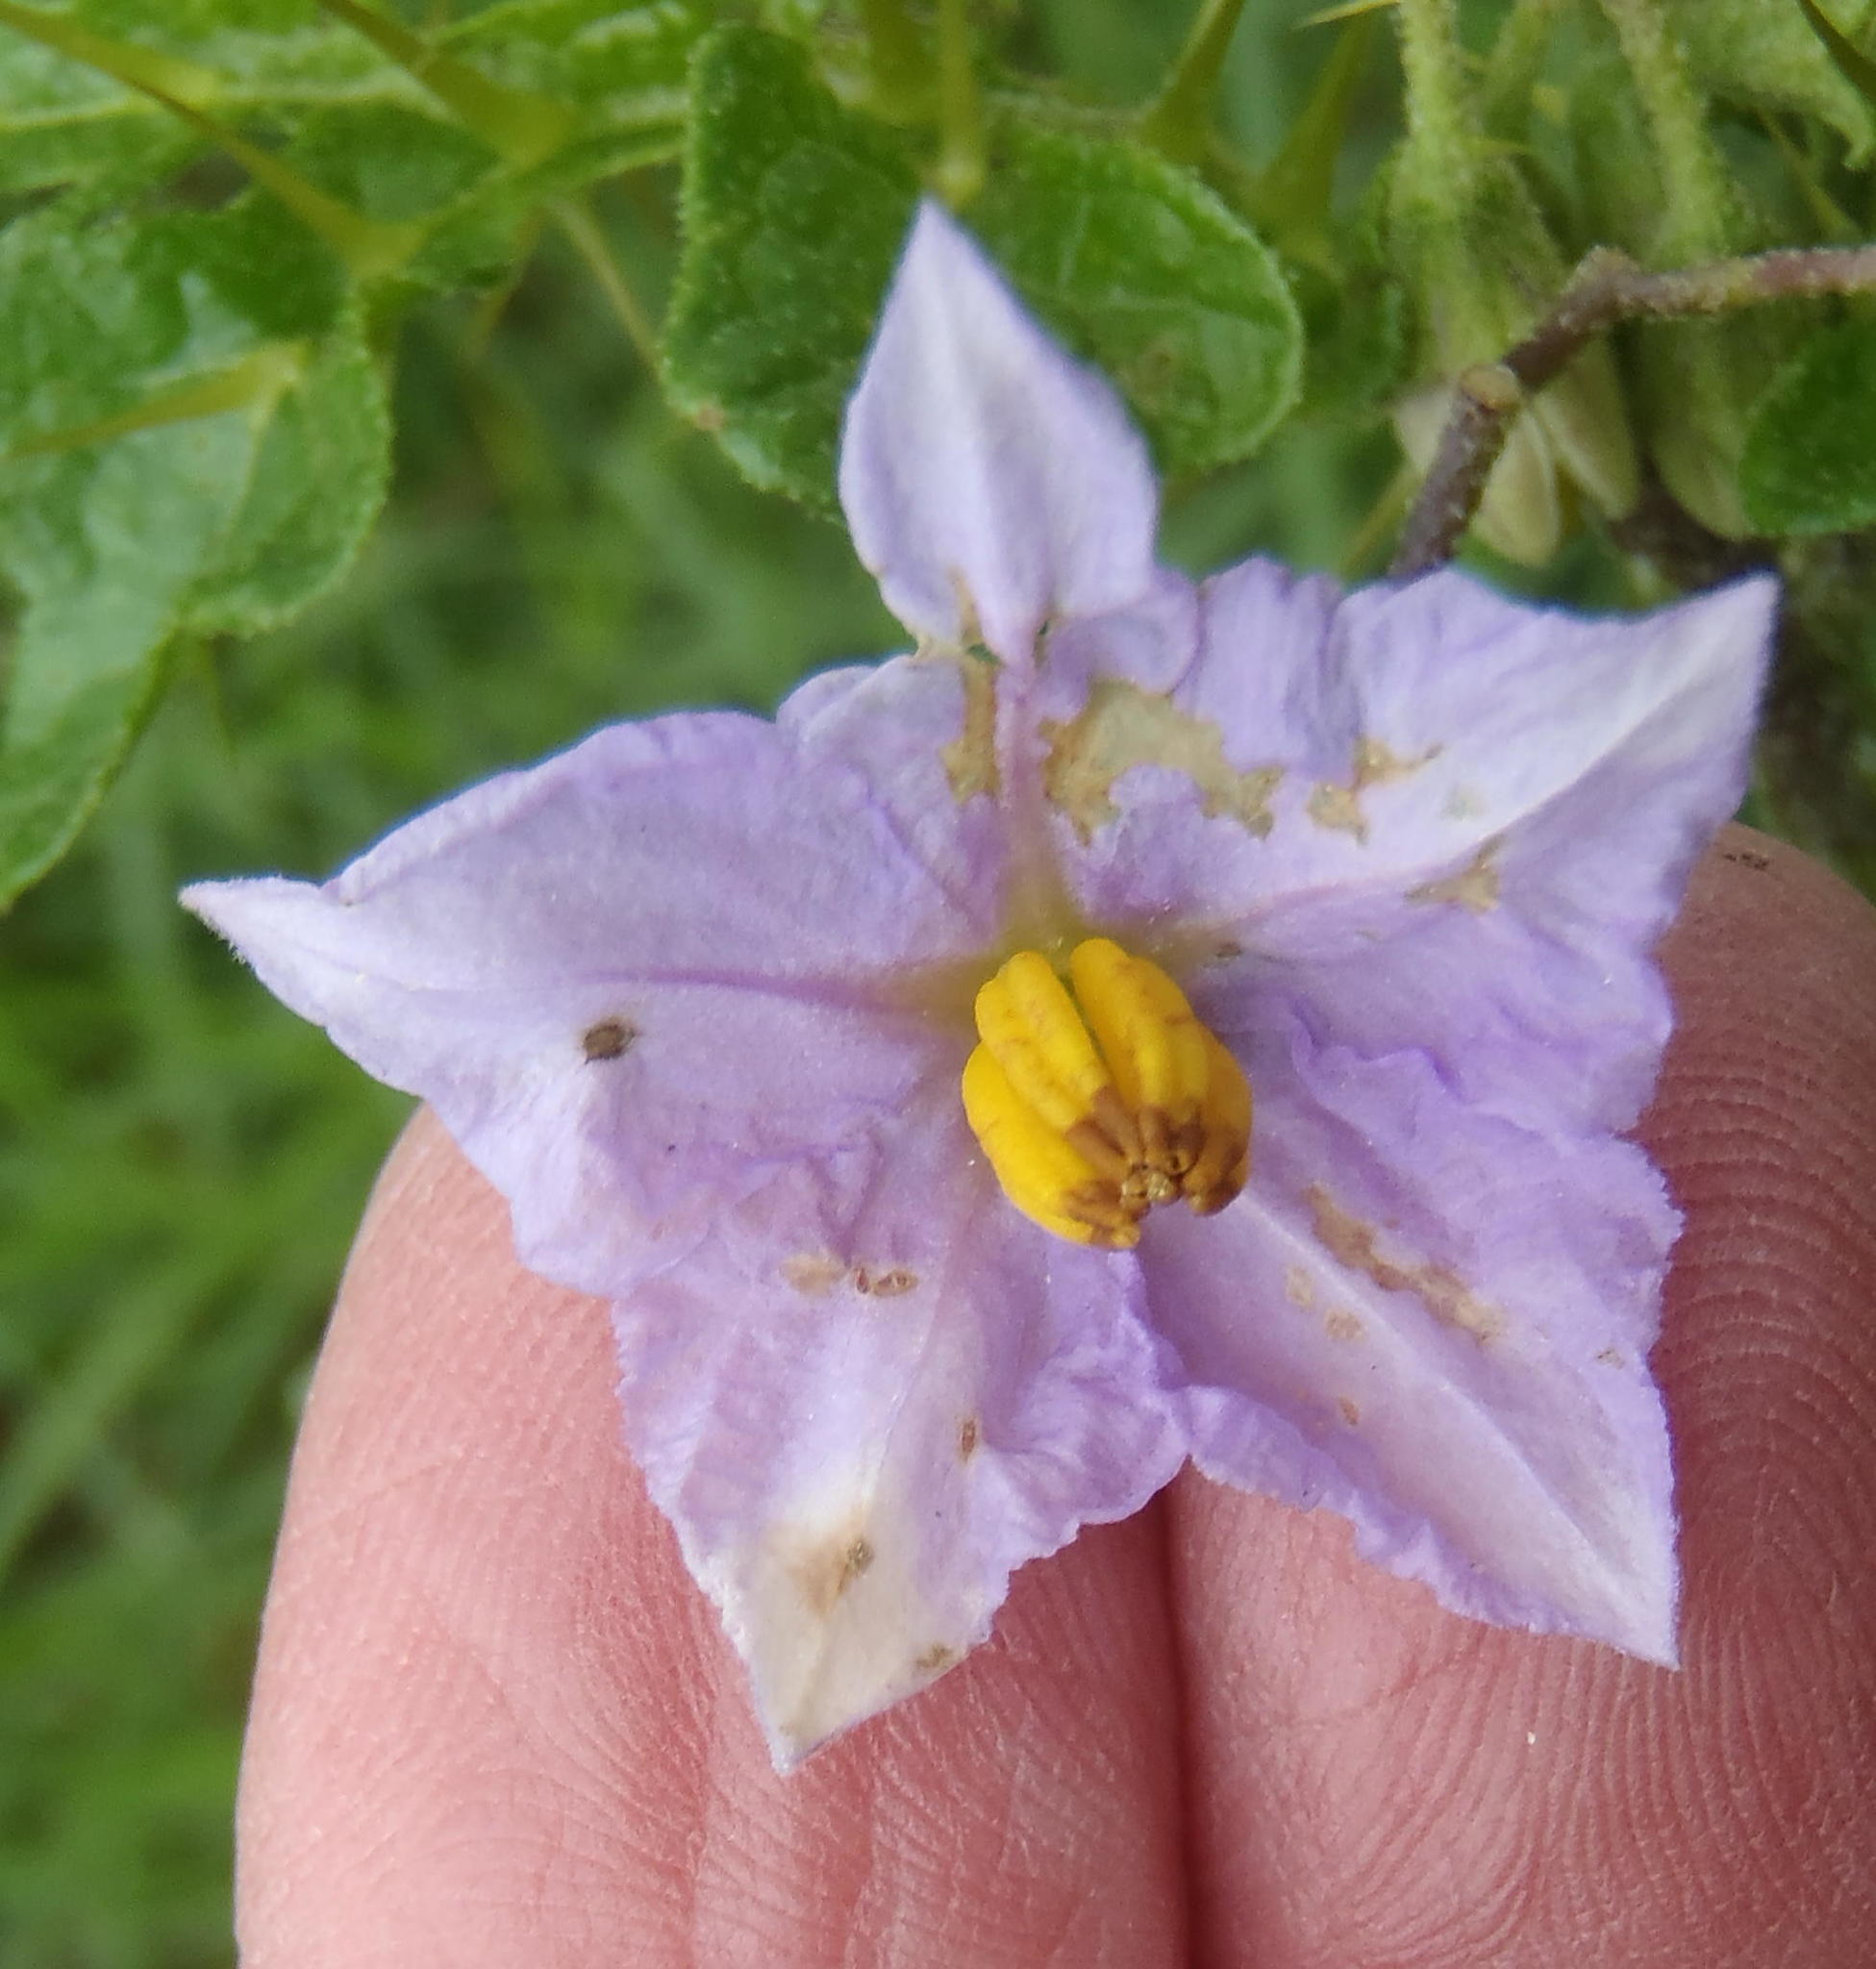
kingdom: Plantae
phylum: Tracheophyta
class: Magnoliopsida
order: Solanales
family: Solanaceae
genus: Solanum
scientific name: Solanum linnaeanum
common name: Nightshade
